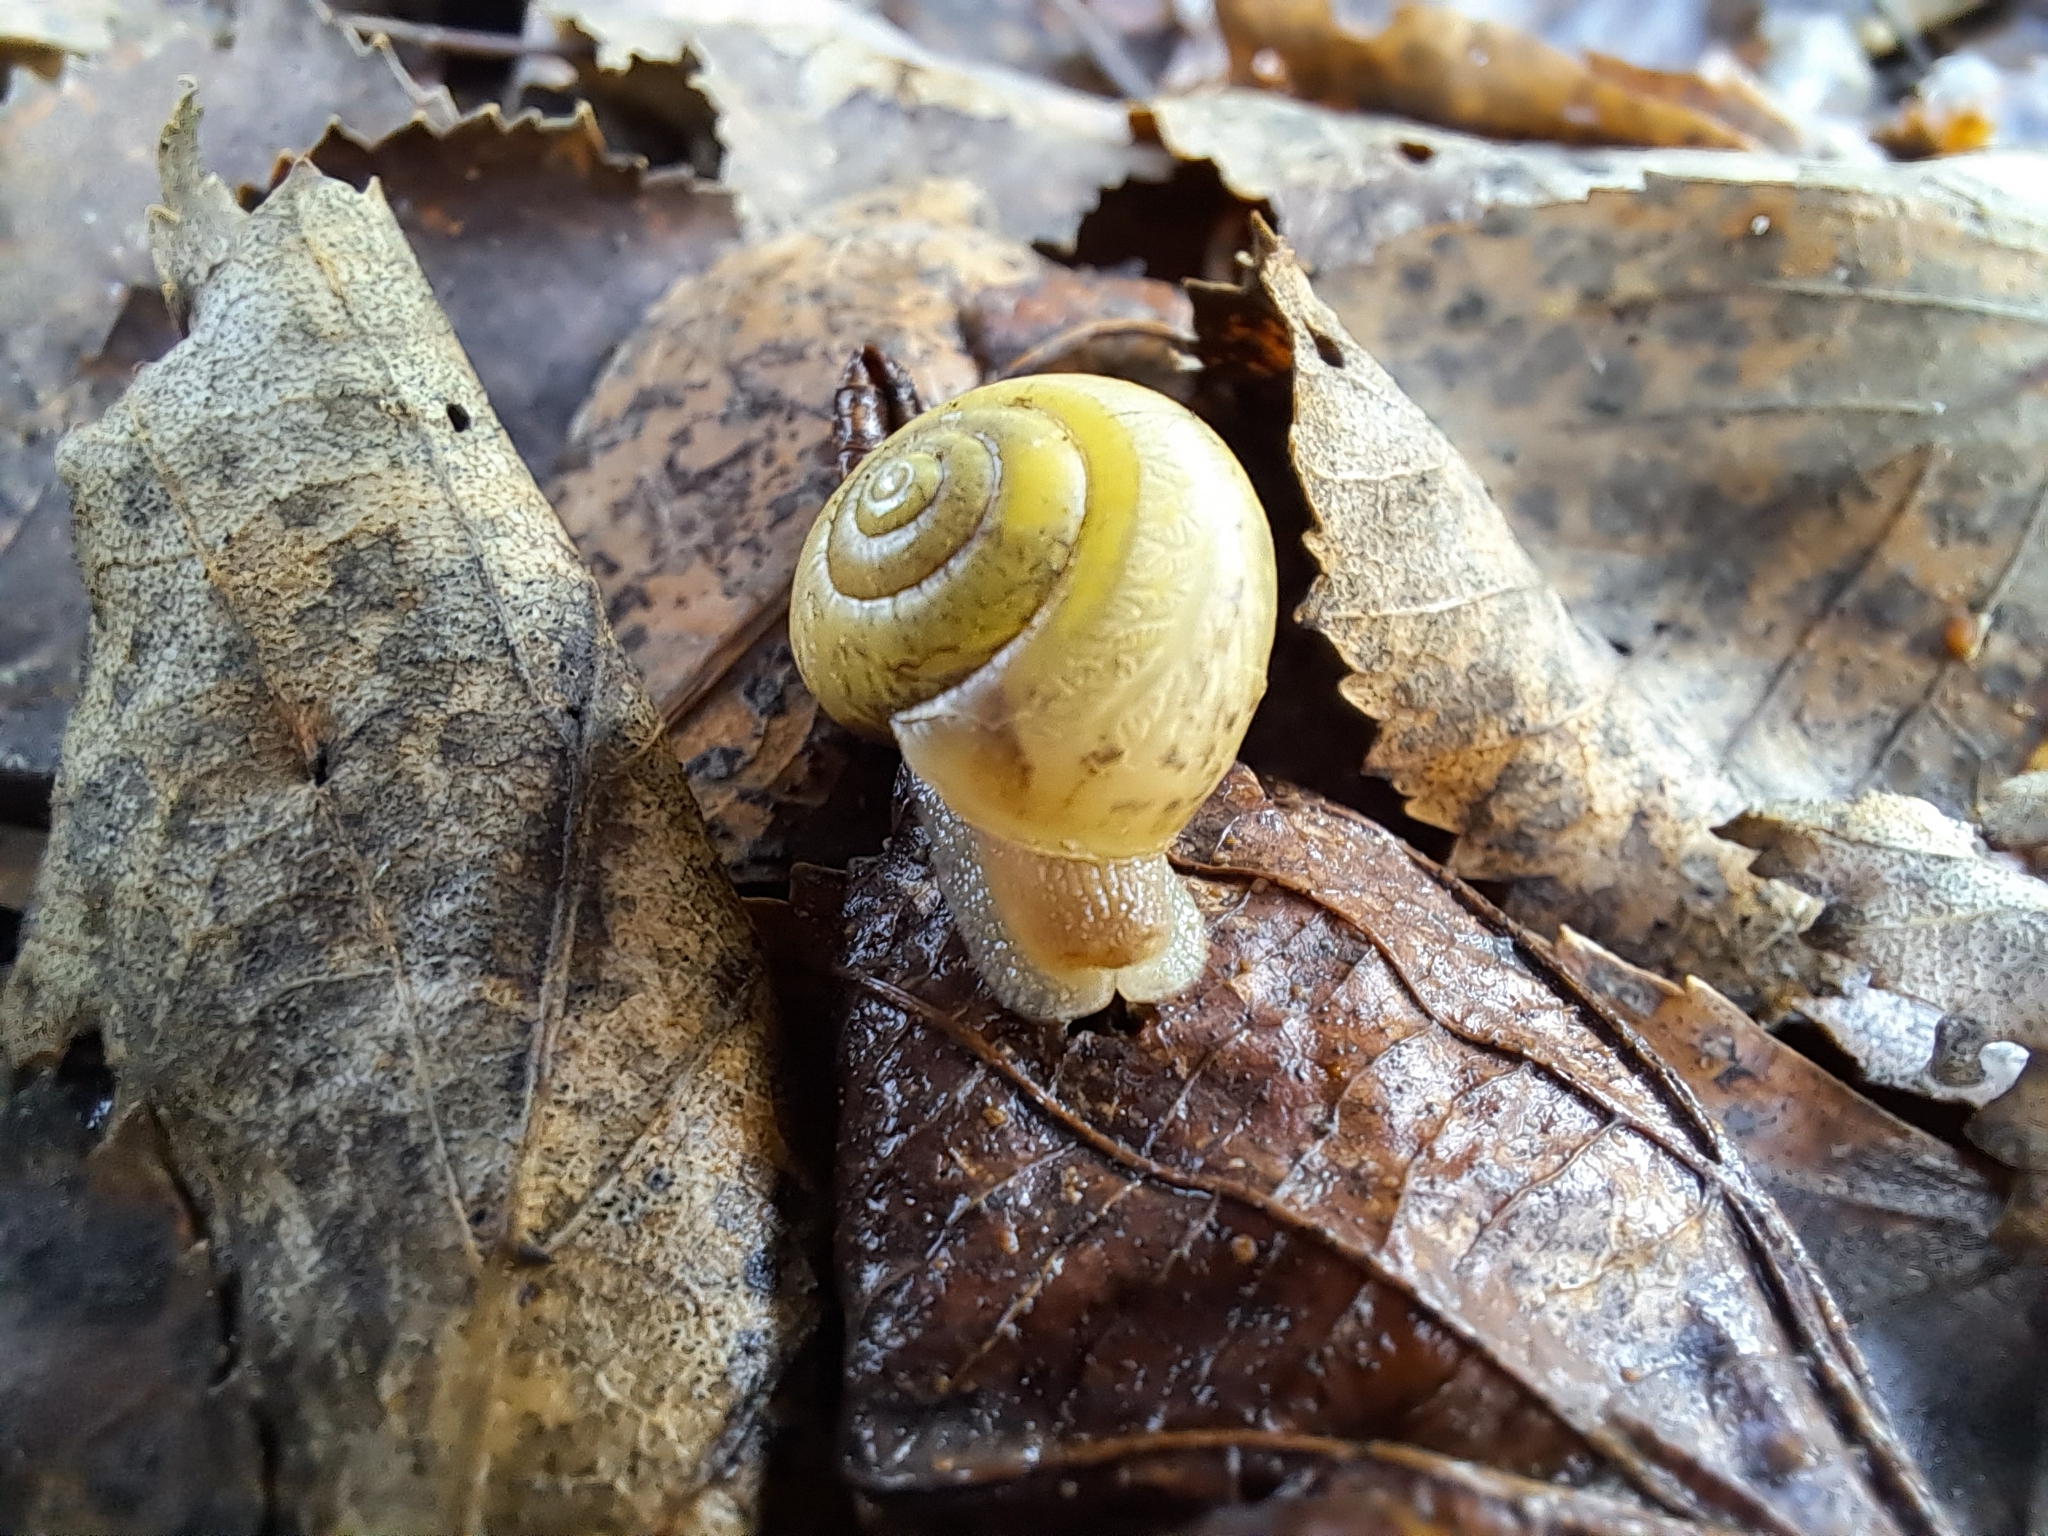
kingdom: Animalia
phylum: Mollusca
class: Gastropoda
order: Stylommatophora
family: Camaenidae
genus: Fruticicola
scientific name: Fruticicola fruticum
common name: Bush snail
